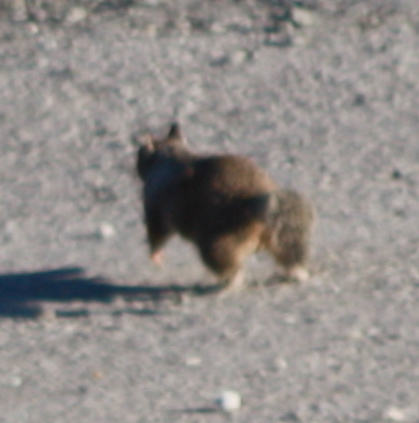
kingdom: Animalia
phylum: Chordata
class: Mammalia
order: Rodentia
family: Sciuridae
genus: Otospermophilus
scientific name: Otospermophilus beecheyi
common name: California ground squirrel
